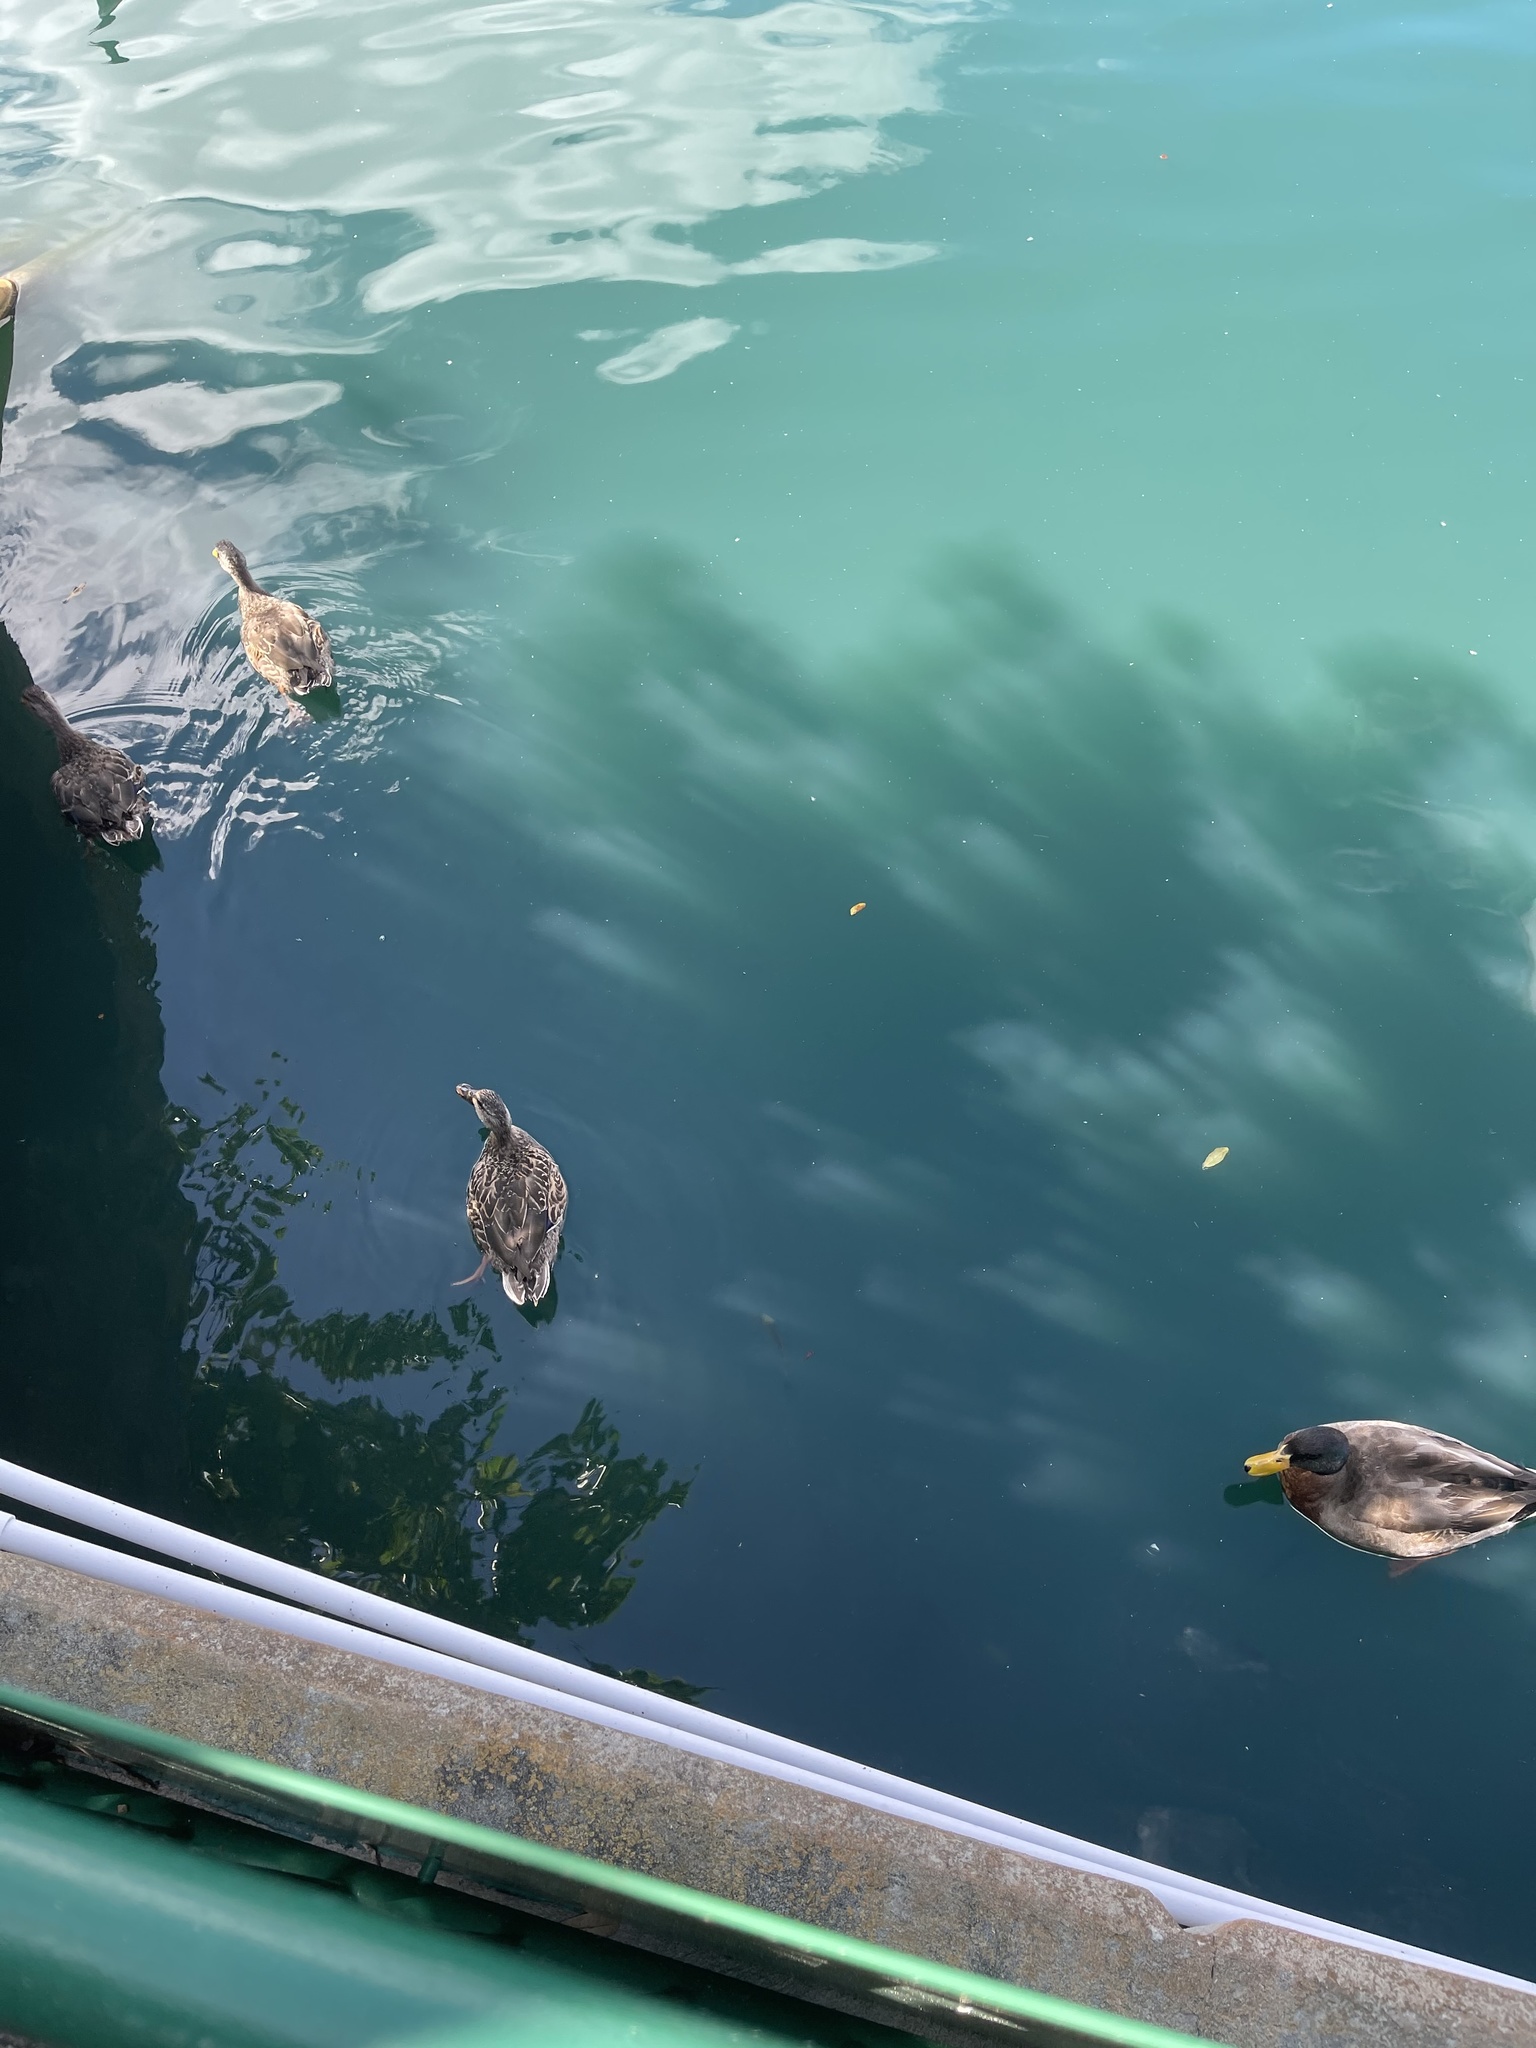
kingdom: Animalia
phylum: Chordata
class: Aves
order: Anseriformes
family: Anatidae
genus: Anas
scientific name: Anas platyrhynchos
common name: Mallard
